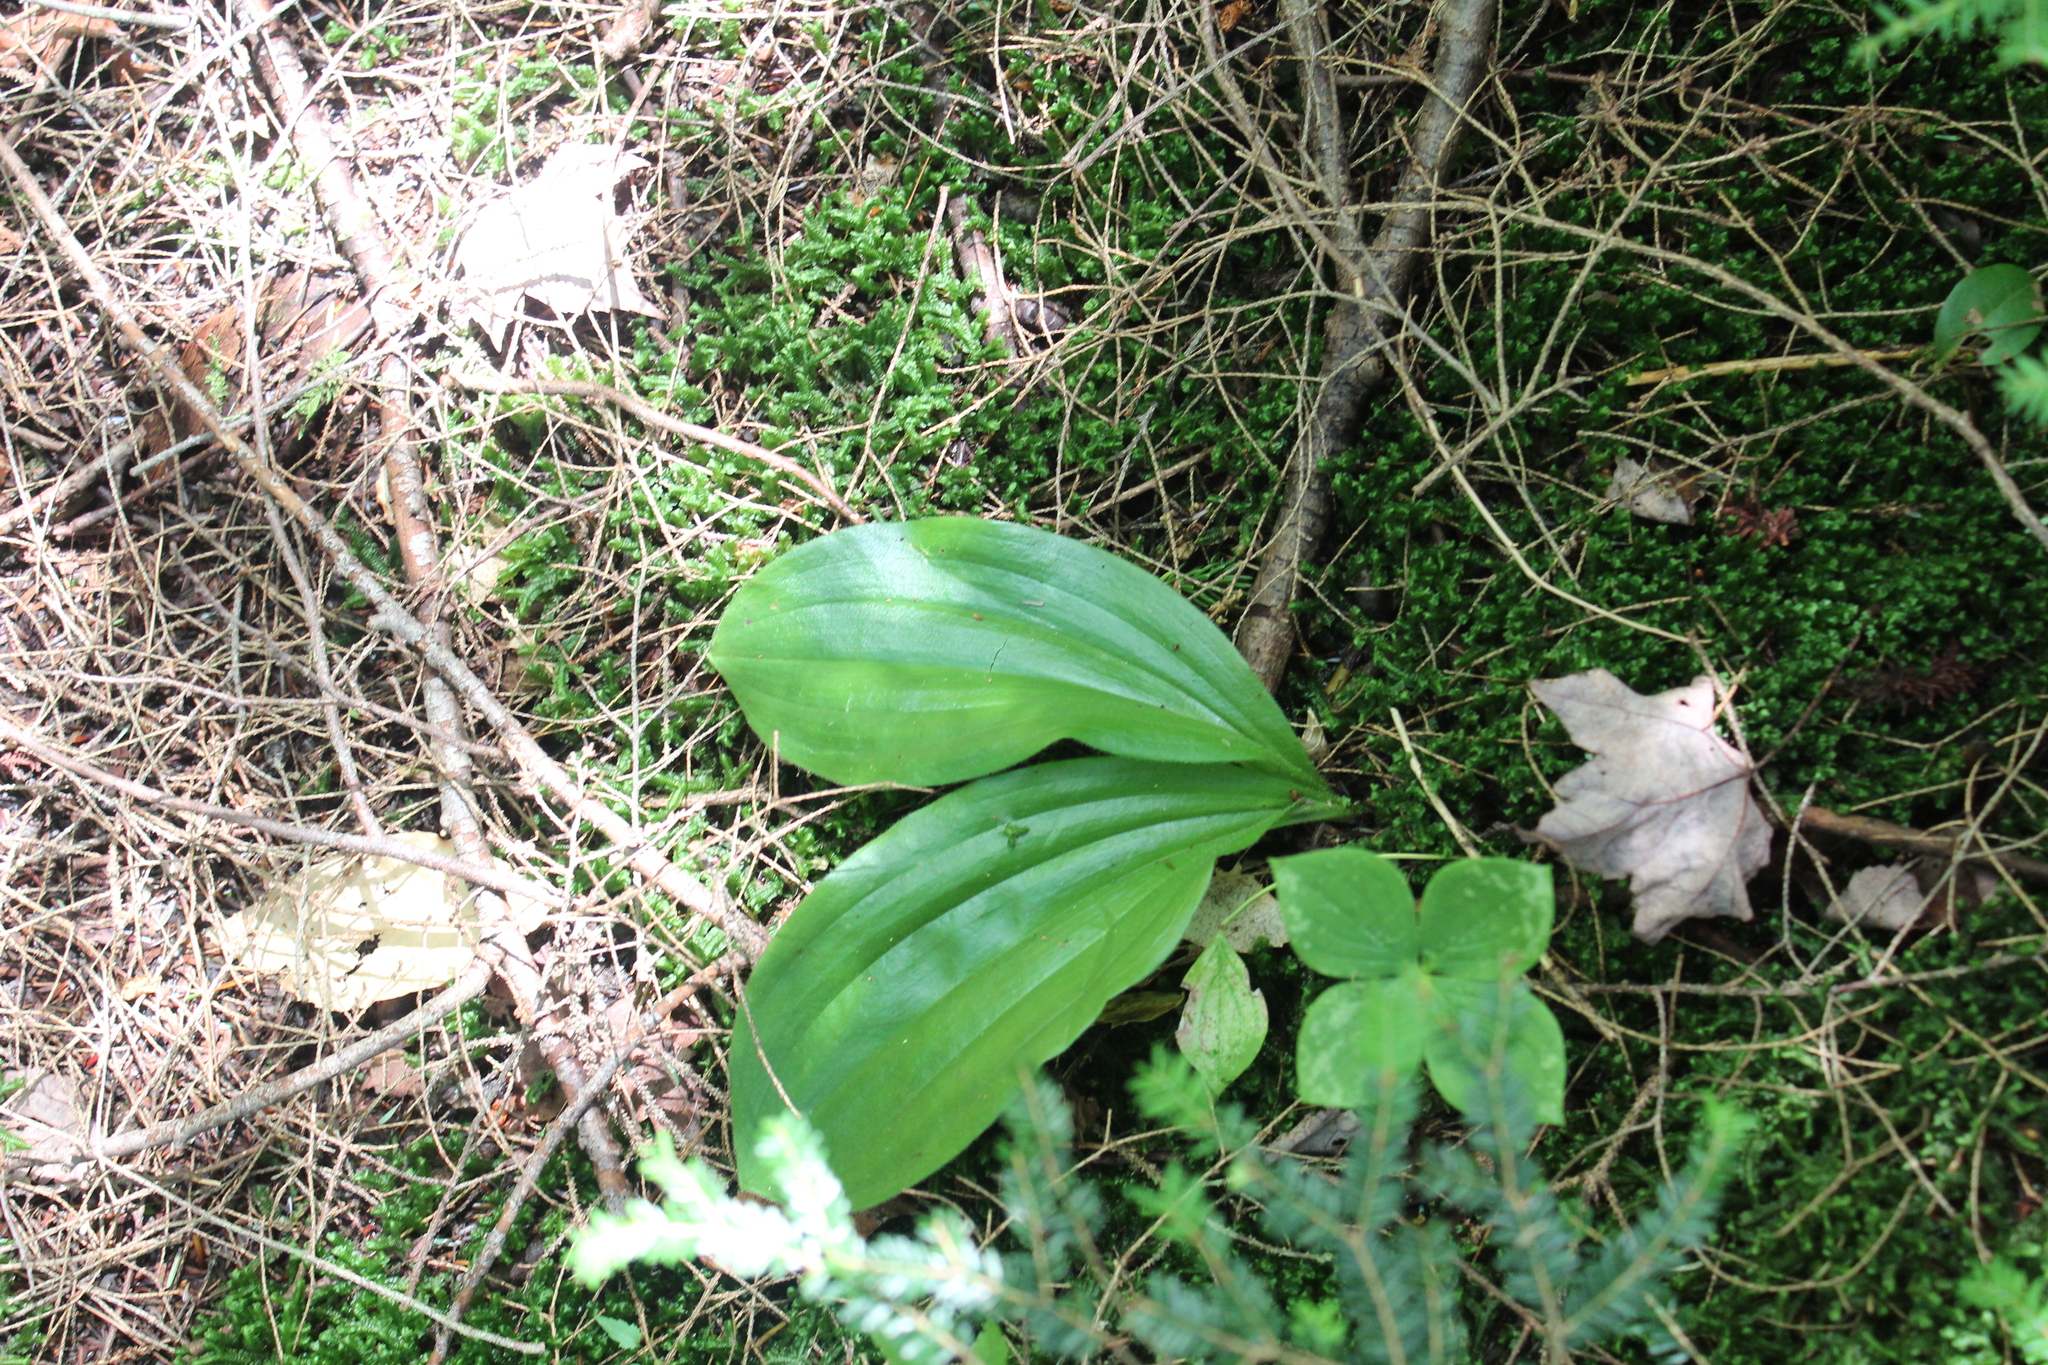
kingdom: Plantae
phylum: Tracheophyta
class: Liliopsida
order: Asparagales
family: Orchidaceae
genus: Cypripedium
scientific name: Cypripedium acaule
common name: Pink lady's-slipper
